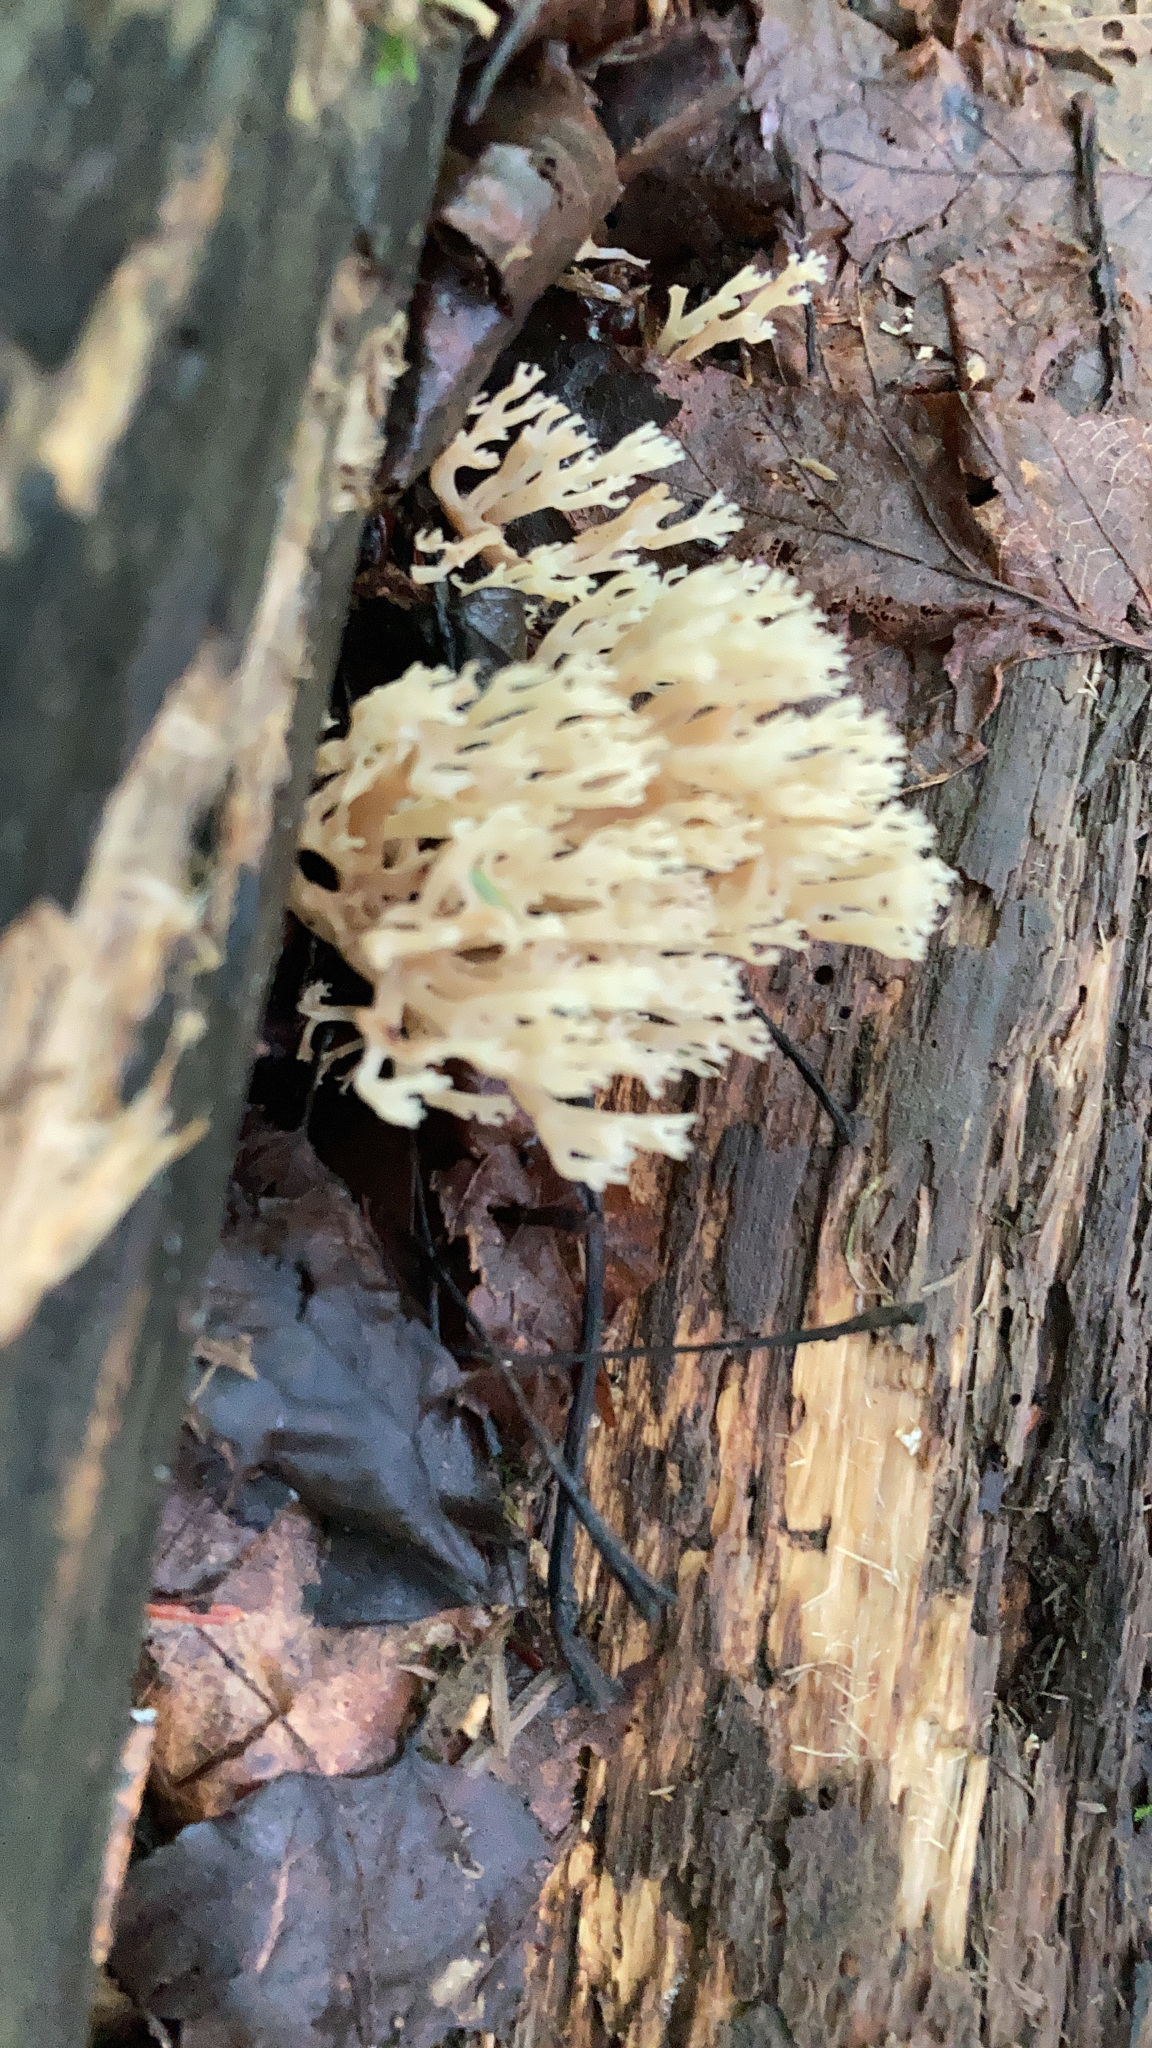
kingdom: Fungi
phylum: Basidiomycota
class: Agaricomycetes
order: Russulales
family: Auriscalpiaceae
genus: Artomyces
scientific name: Artomyces pyxidatus
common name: Crown-tipped coral fungus
